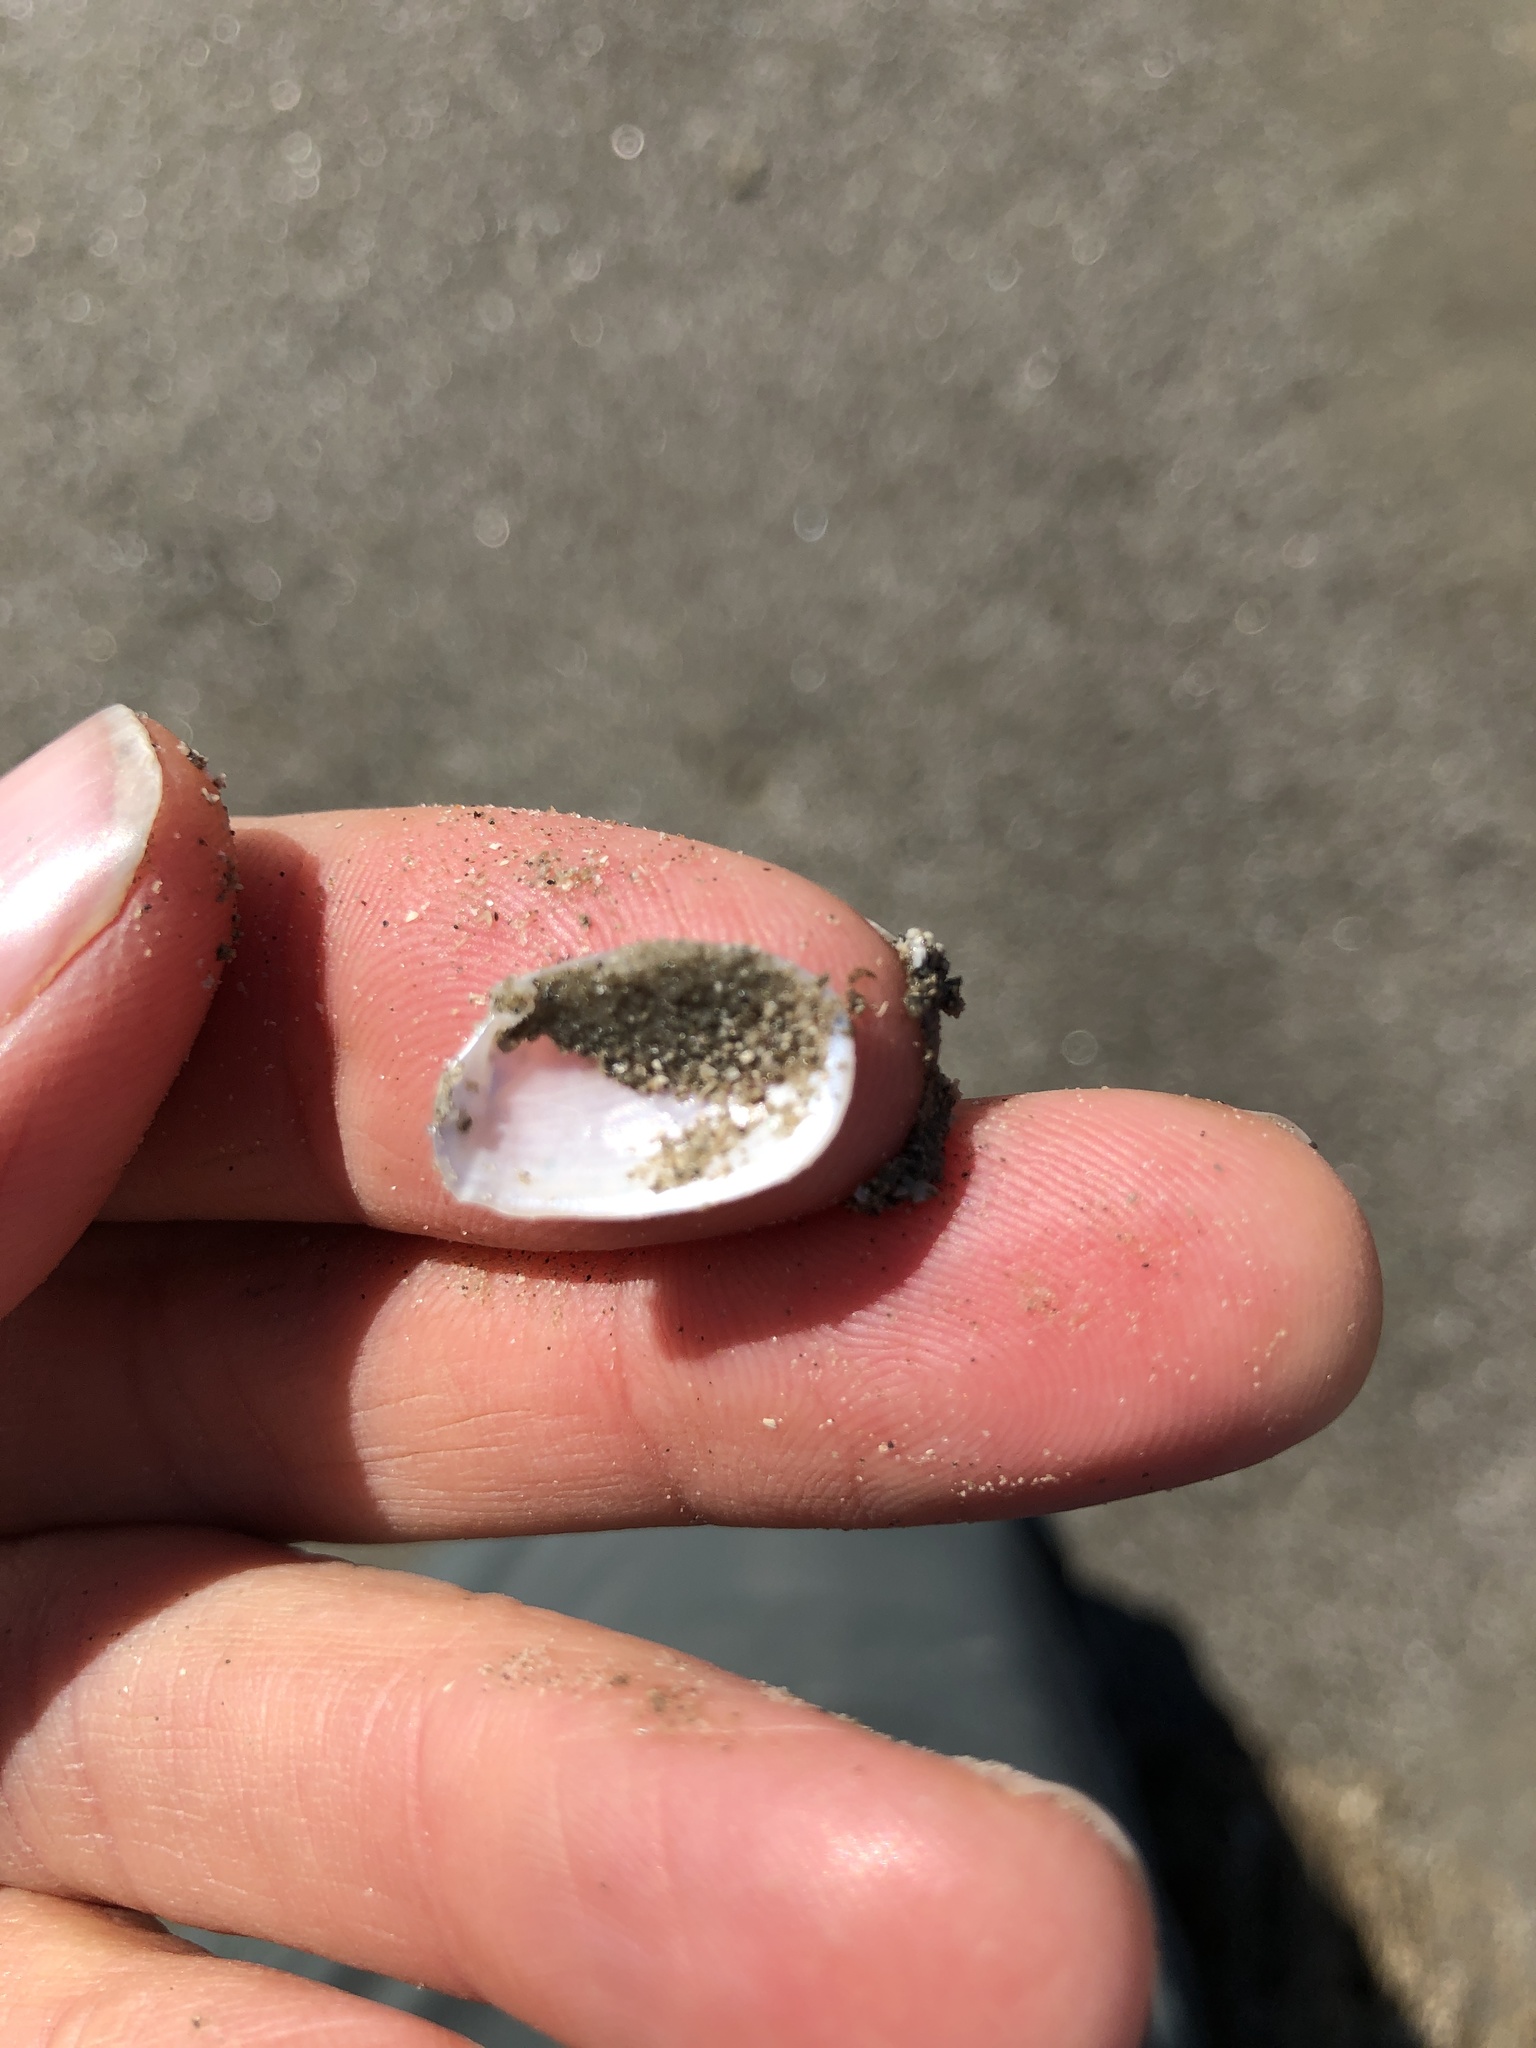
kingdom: Animalia
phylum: Mollusca
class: Bivalvia
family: Periplomatidae
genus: Periploma
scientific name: Periploma inequale
